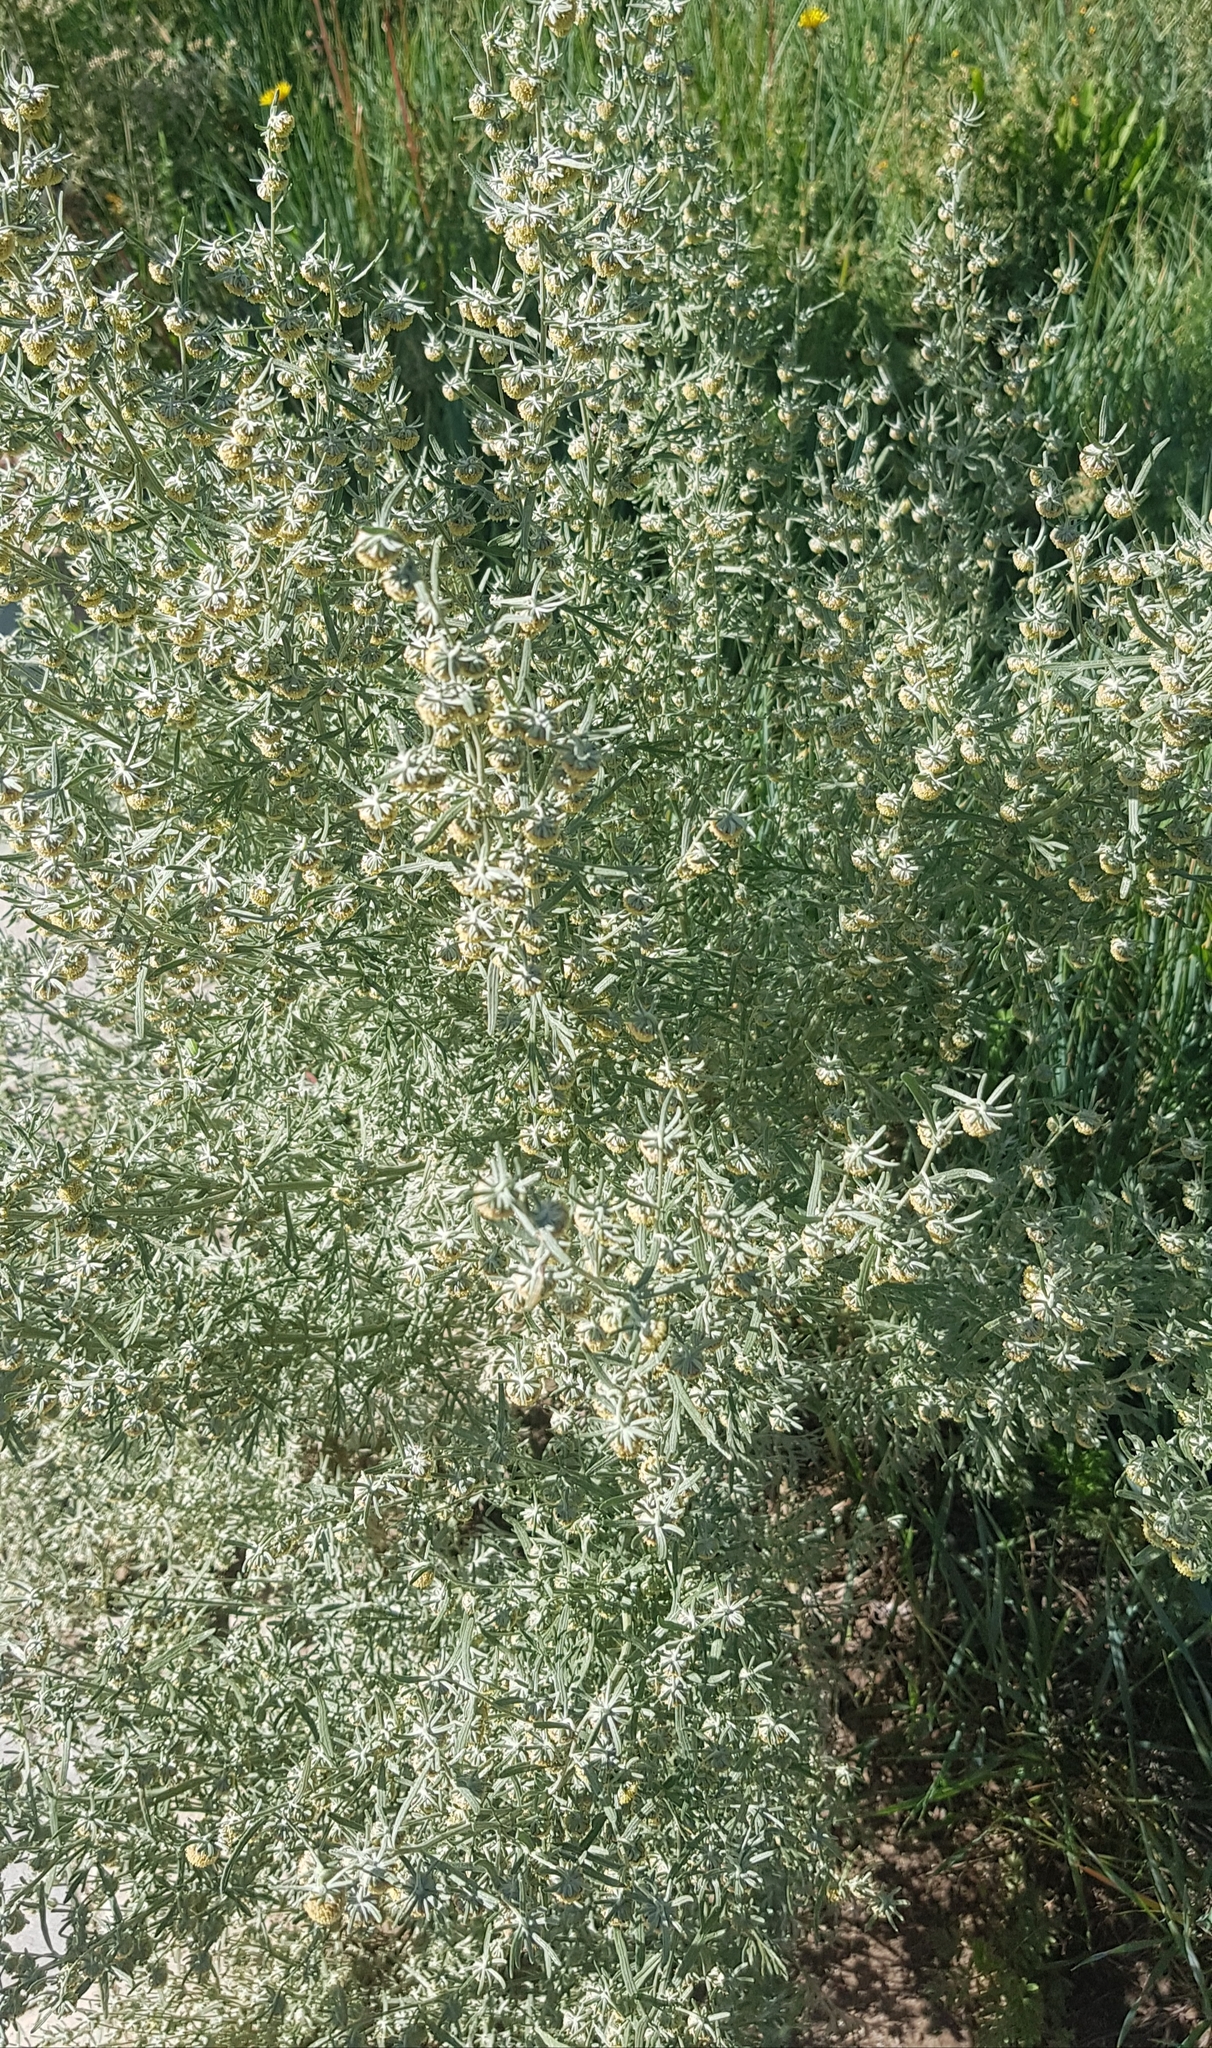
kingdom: Plantae
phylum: Tracheophyta
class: Magnoliopsida
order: Asterales
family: Asteraceae
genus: Artemisia
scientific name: Artemisia sieversiana
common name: Sieversian wormwood
